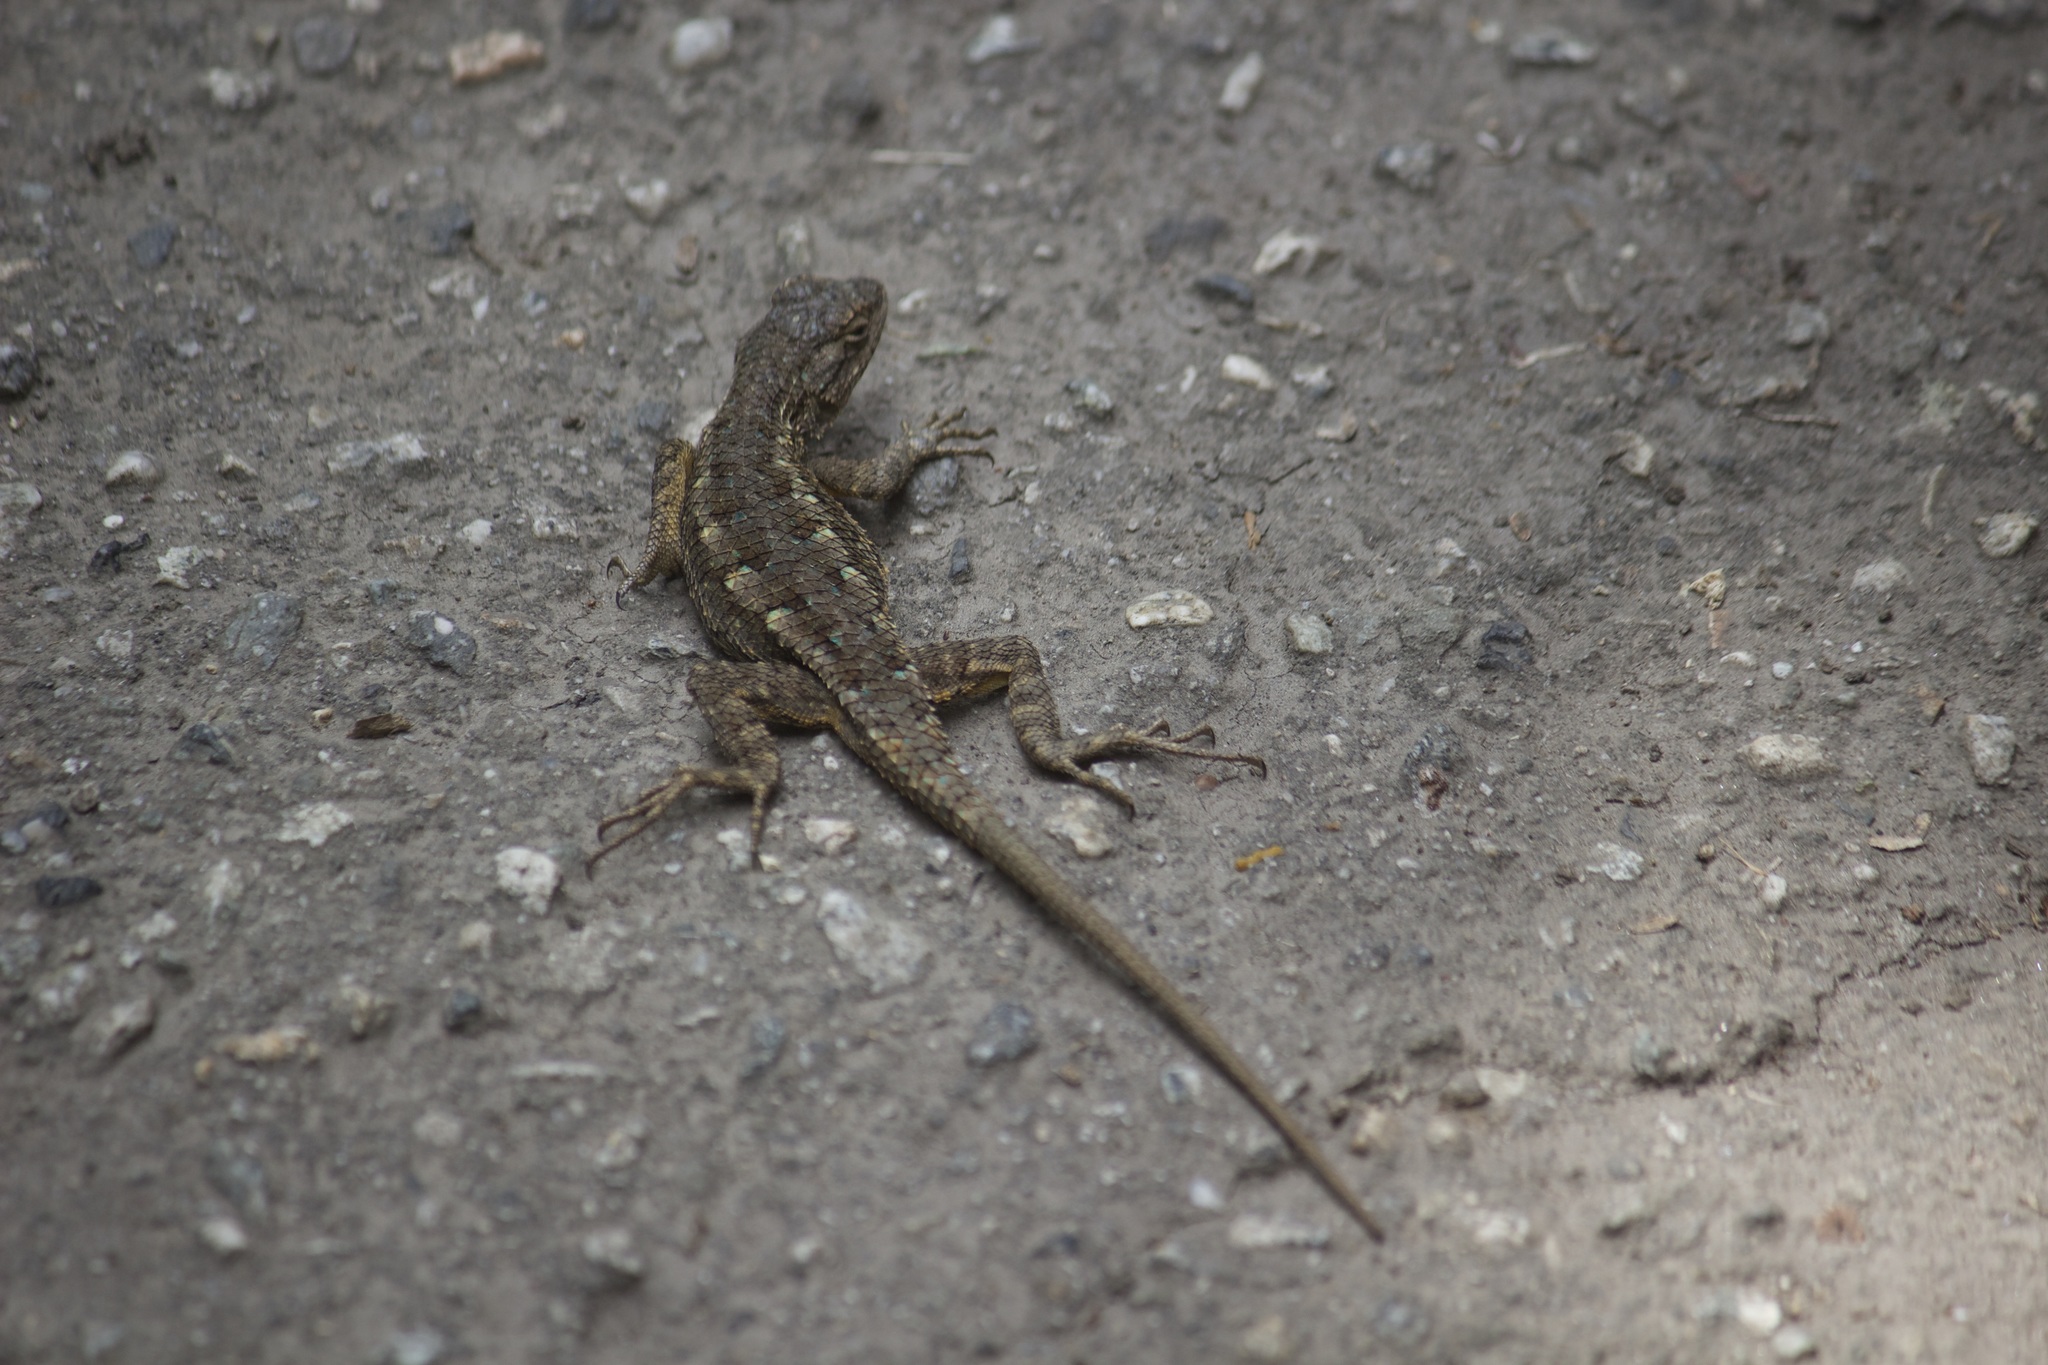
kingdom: Animalia
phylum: Chordata
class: Squamata
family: Phrynosomatidae
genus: Sceloporus
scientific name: Sceloporus occidentalis
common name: Western fence lizard
